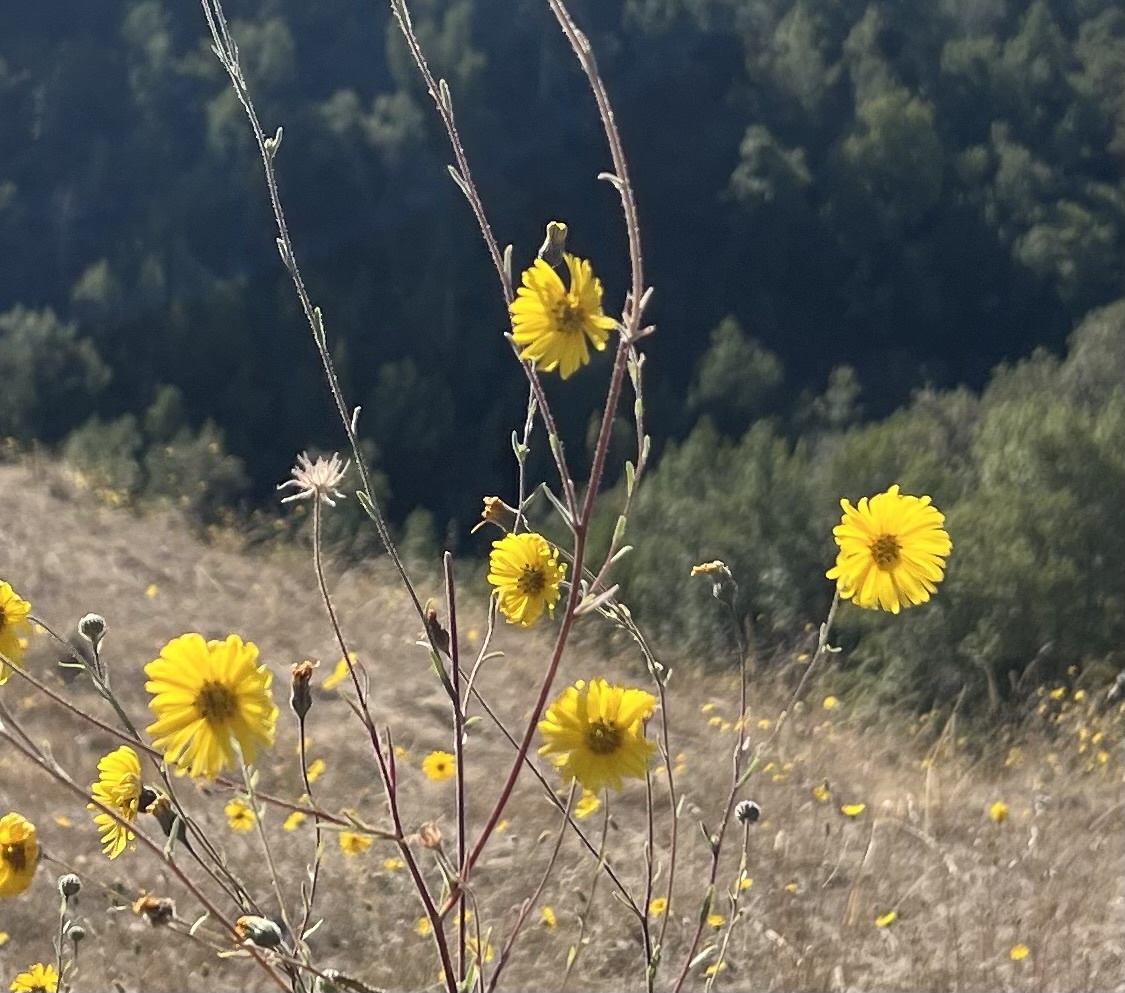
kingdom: Plantae
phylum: Tracheophyta
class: Magnoliopsida
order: Asterales
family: Asteraceae
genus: Madia
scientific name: Madia elegans
